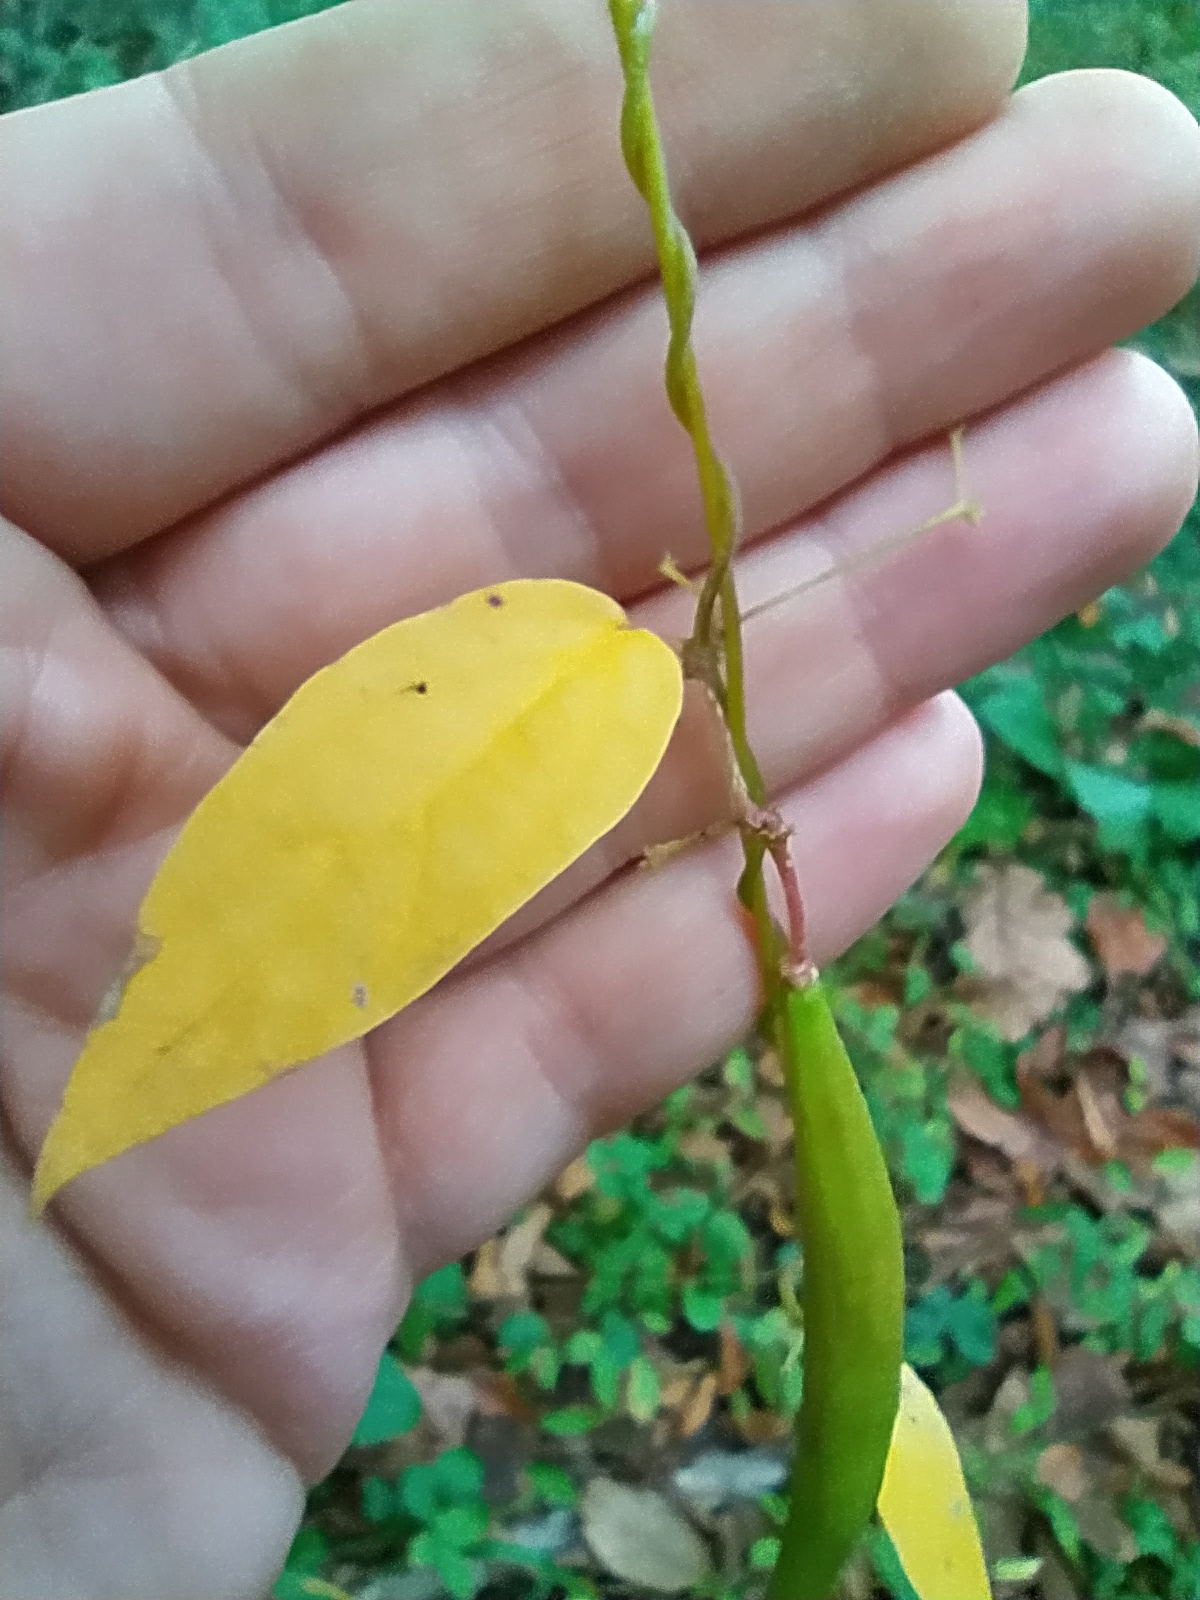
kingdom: Plantae
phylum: Tracheophyta
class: Magnoliopsida
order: Gentianales
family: Apocynaceae
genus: Periploca
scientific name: Periploca graeca
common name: Silkvine
